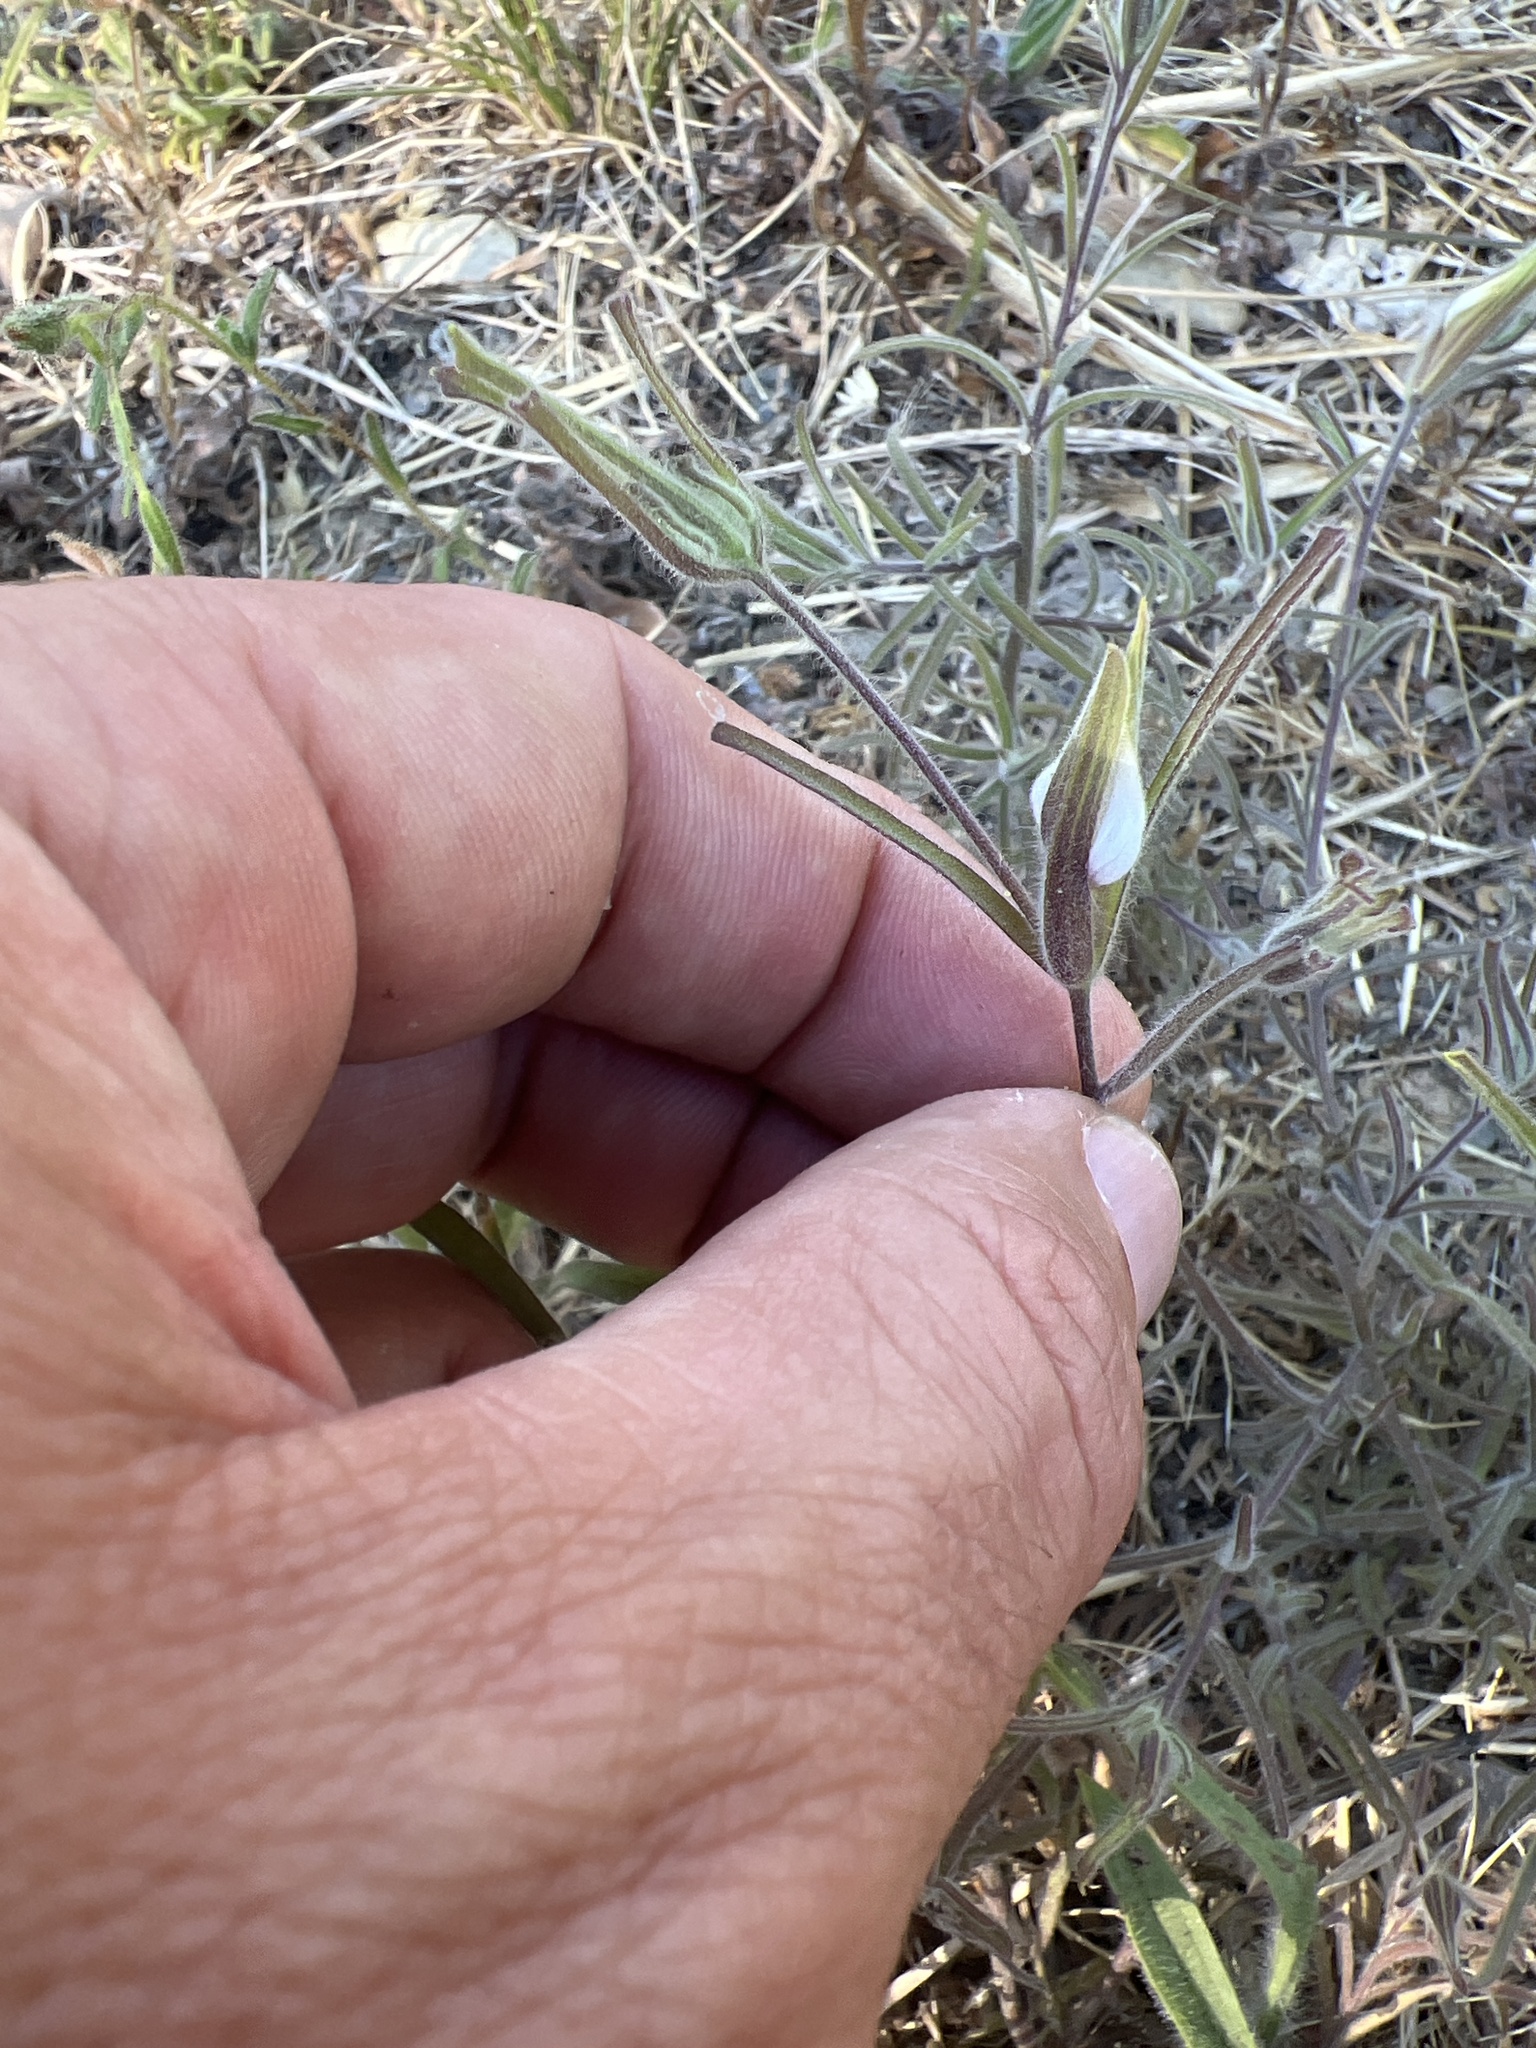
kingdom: Plantae
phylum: Tracheophyta
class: Magnoliopsida
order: Lamiales
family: Orobanchaceae
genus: Cordylanthus
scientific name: Cordylanthus pilosus
